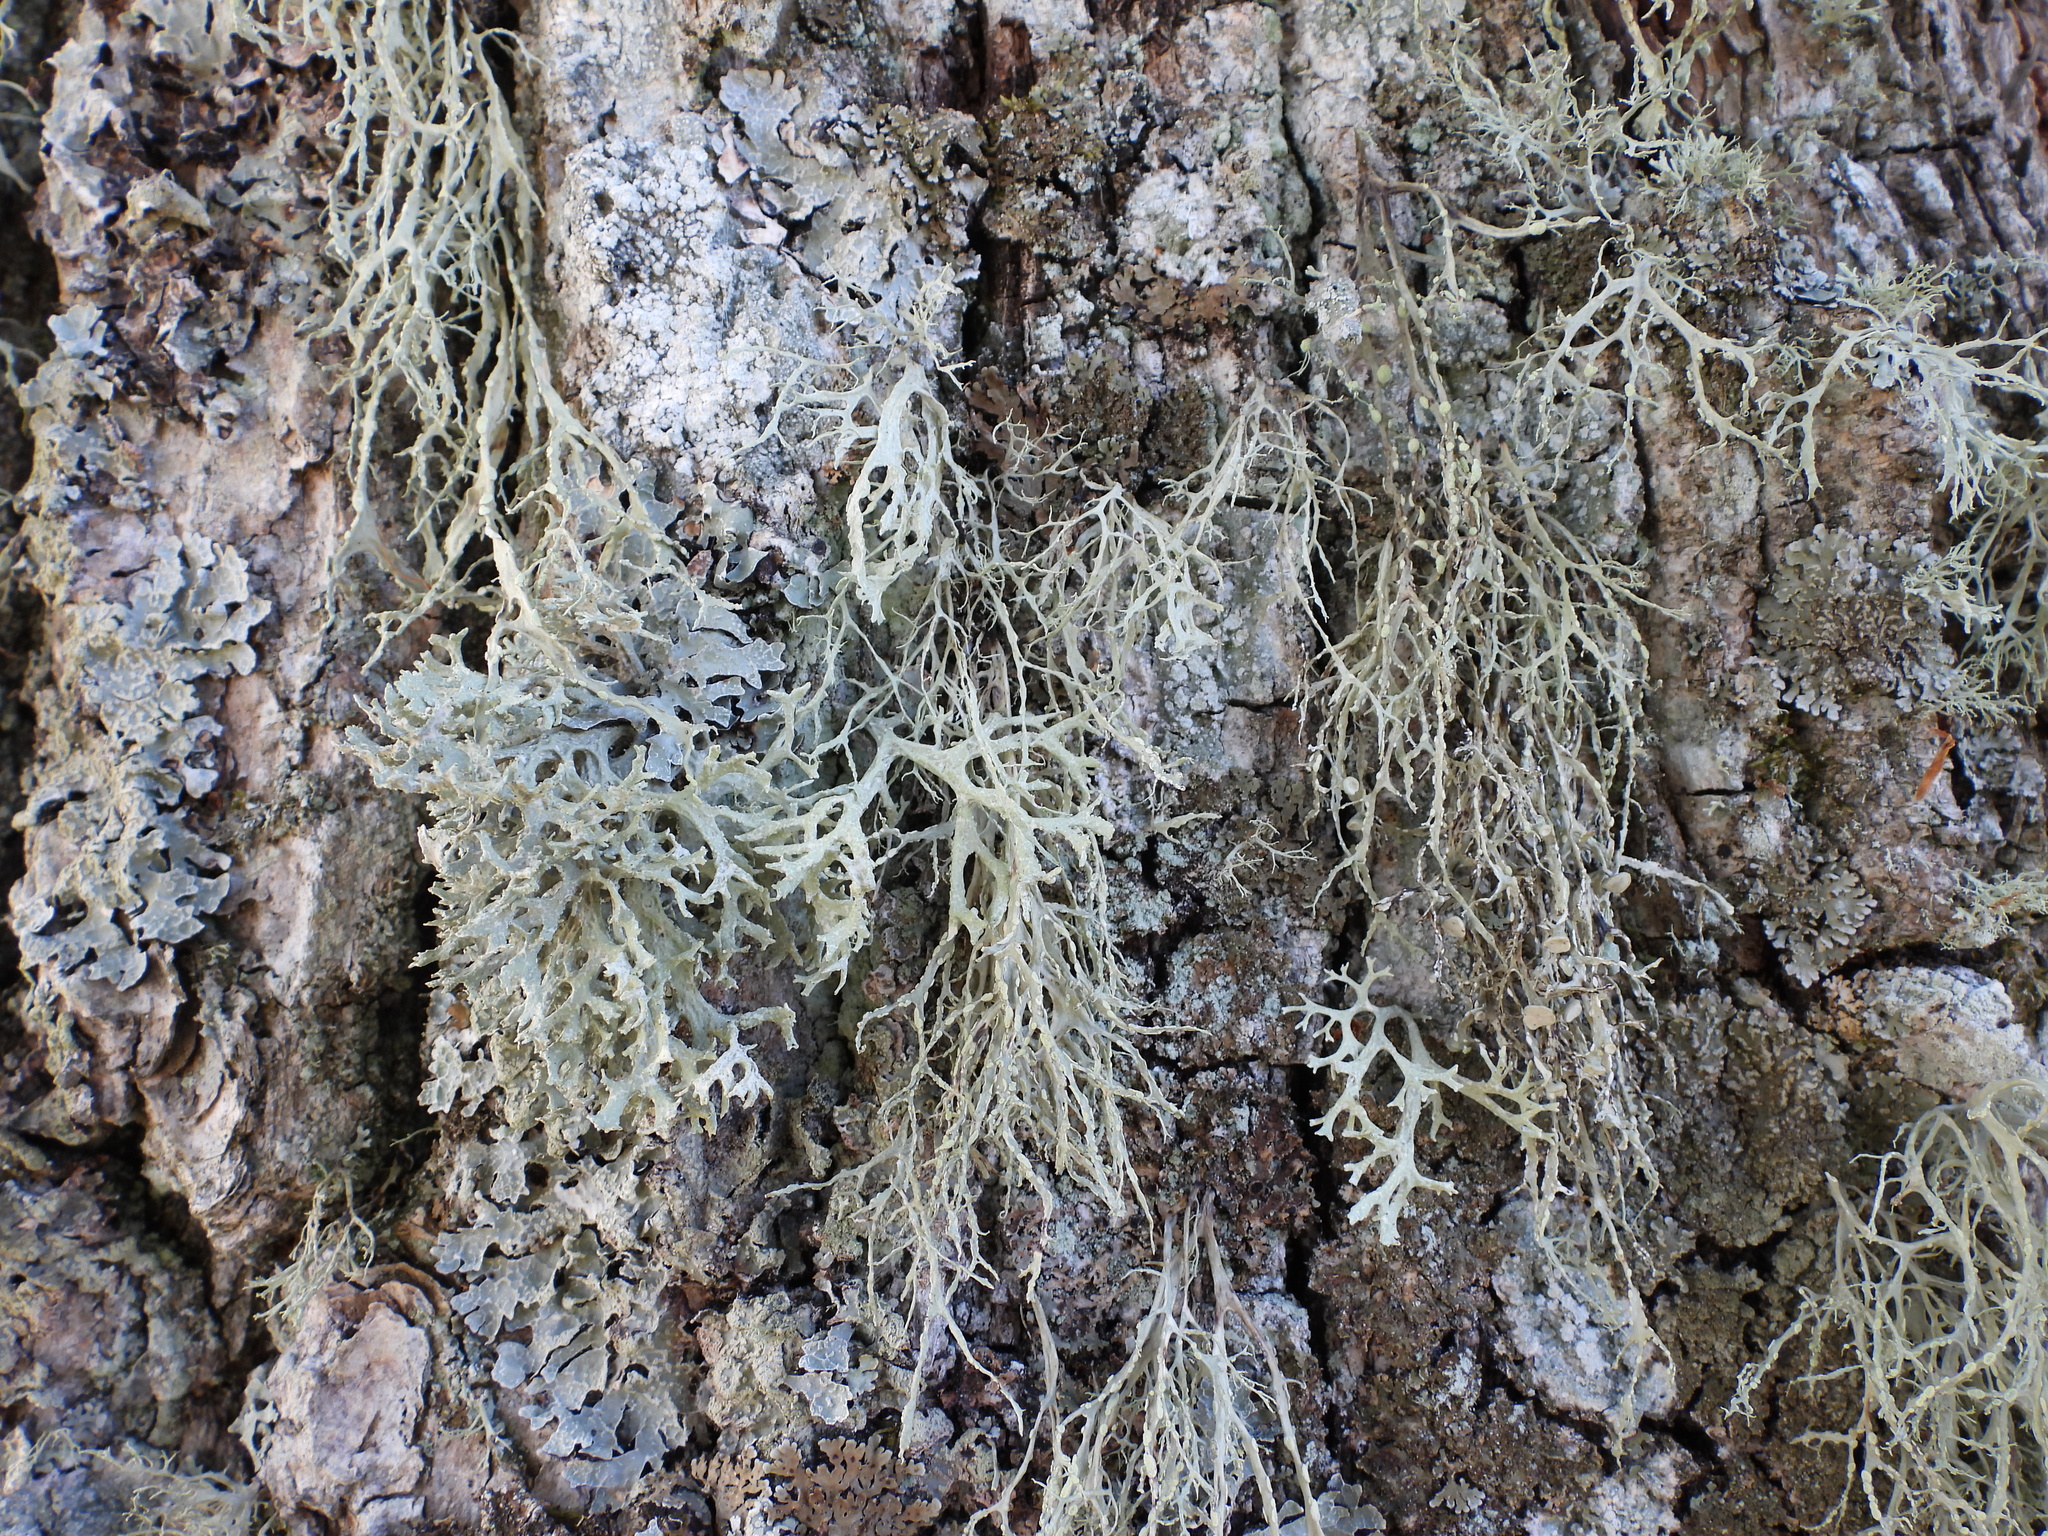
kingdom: Fungi
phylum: Ascomycota
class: Lecanoromycetes
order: Lecanorales
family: Ramalinaceae
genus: Ramalina
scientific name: Ramalina farinacea
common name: Farinose cartilage lichen
